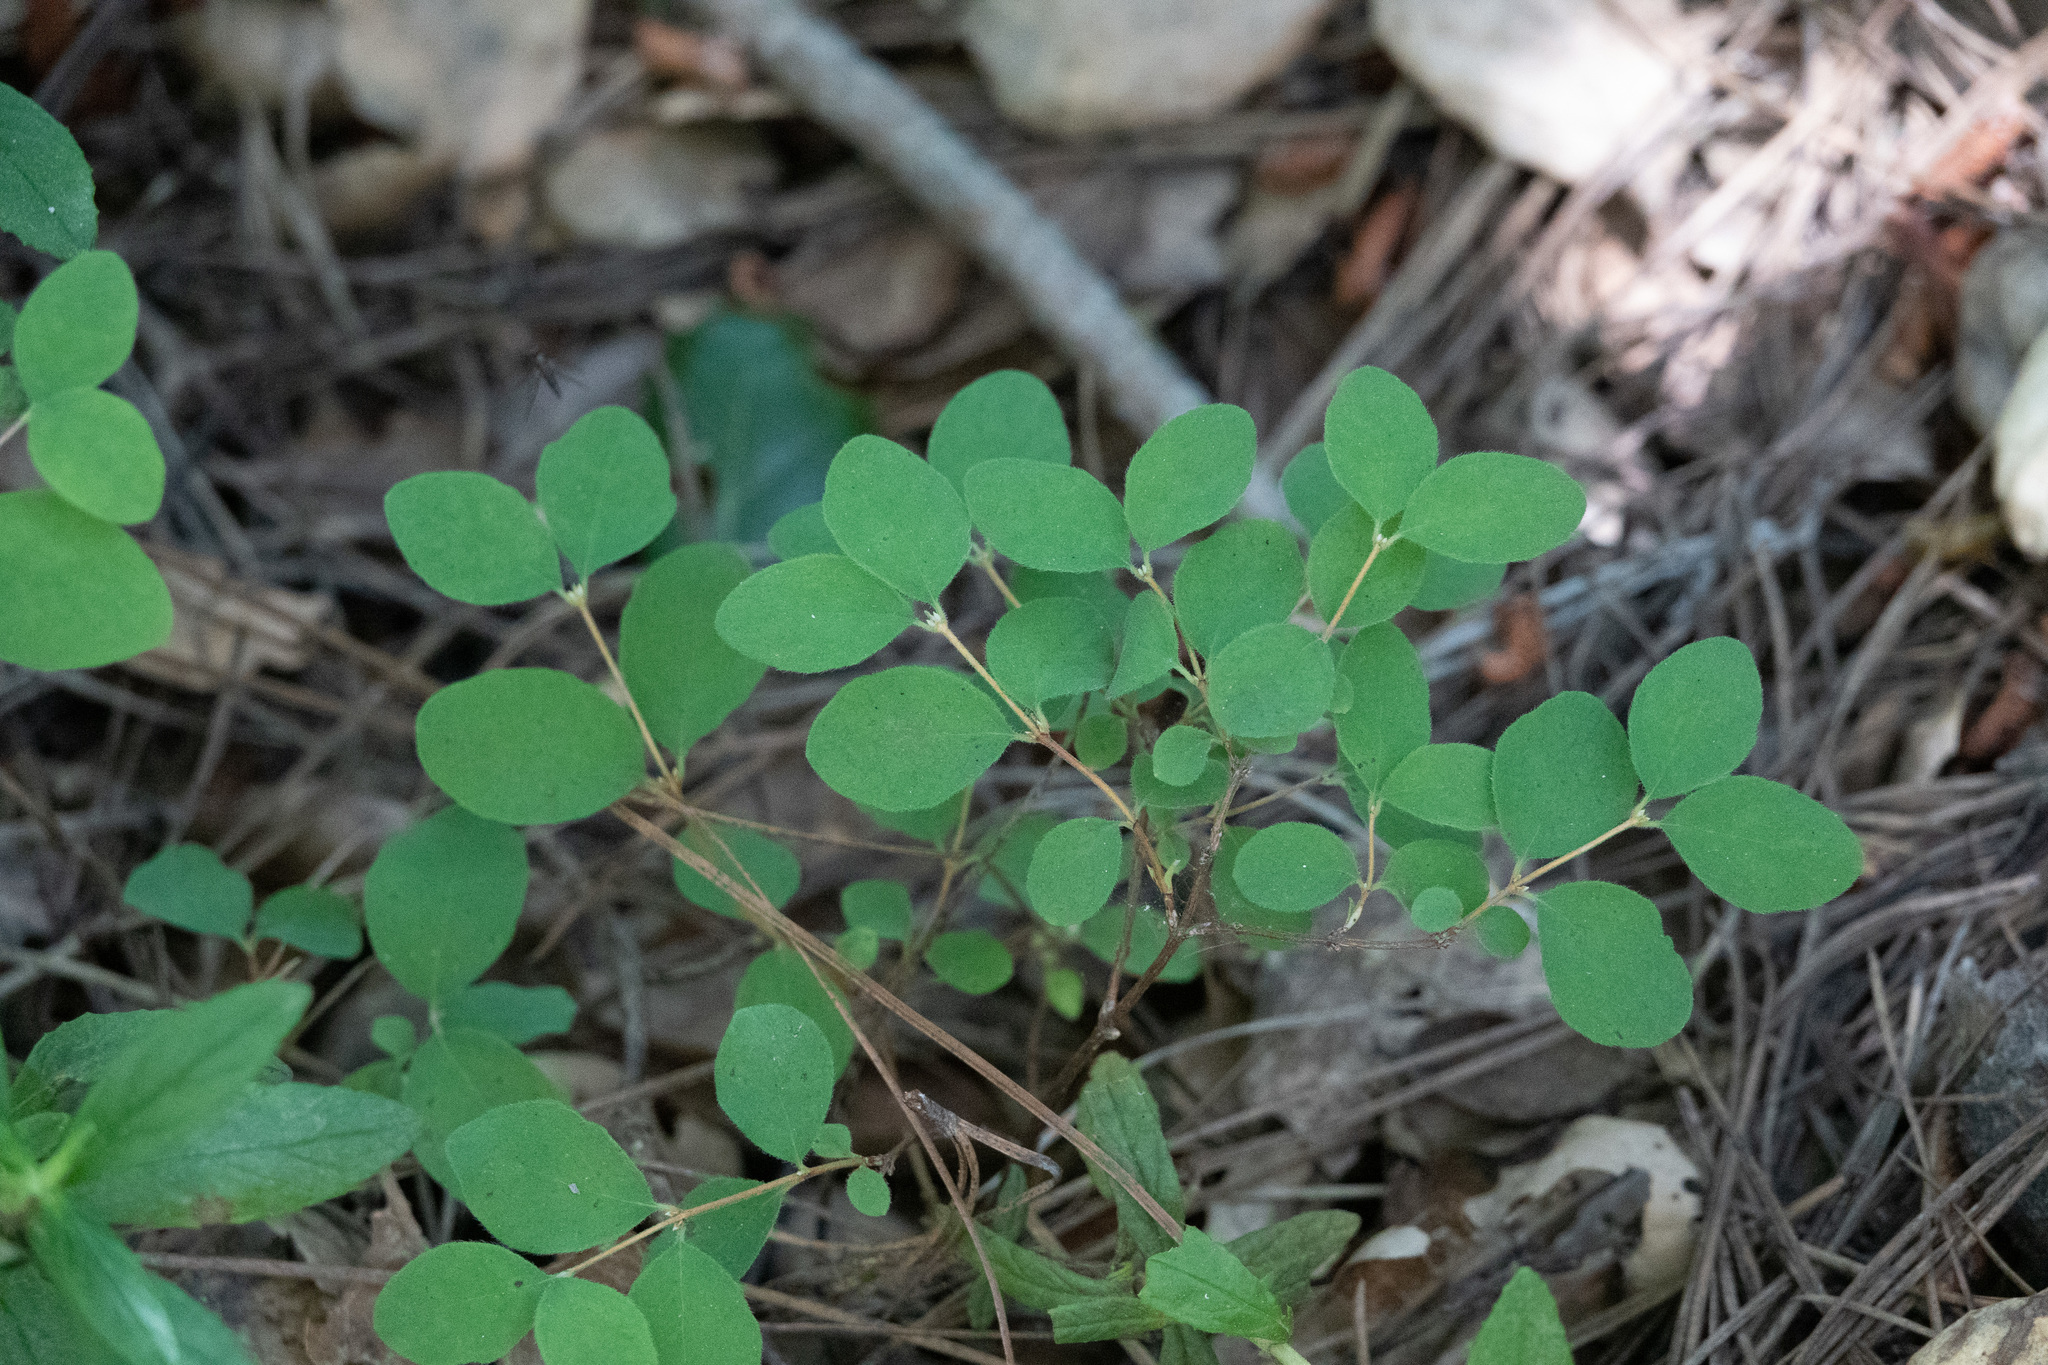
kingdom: Plantae
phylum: Tracheophyta
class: Magnoliopsida
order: Dipsacales
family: Caprifoliaceae
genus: Symphoricarpos
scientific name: Symphoricarpos mollis
